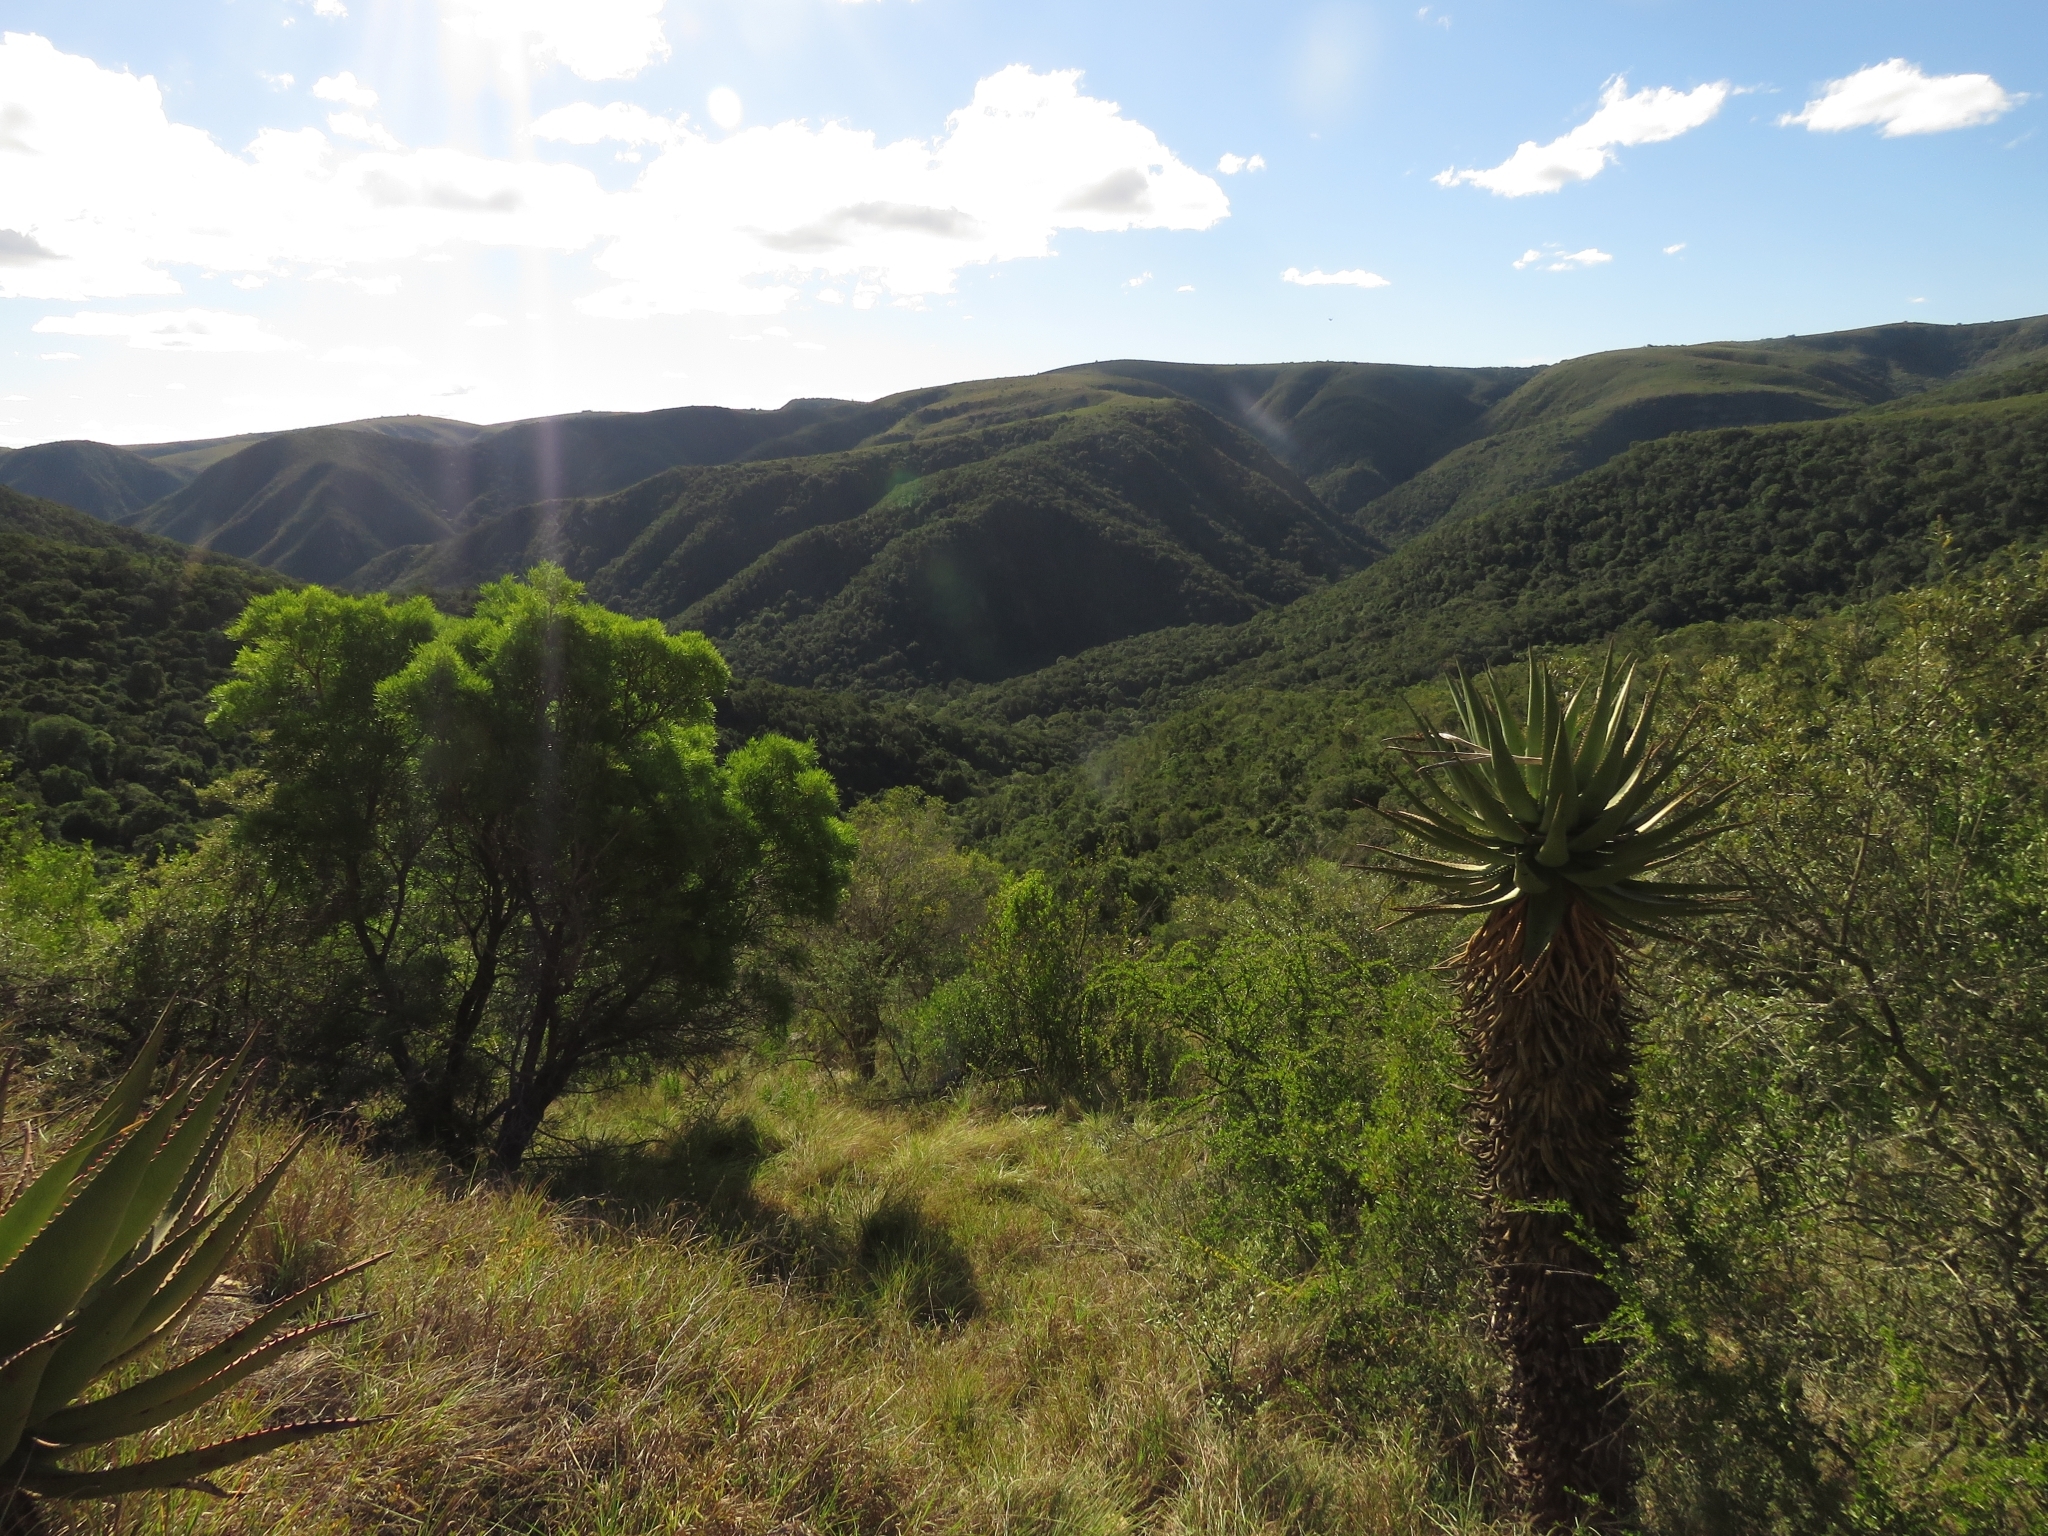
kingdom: Plantae
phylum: Tracheophyta
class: Liliopsida
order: Asparagales
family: Asphodelaceae
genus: Aloe
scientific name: Aloe ferox
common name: Bitter aloe
